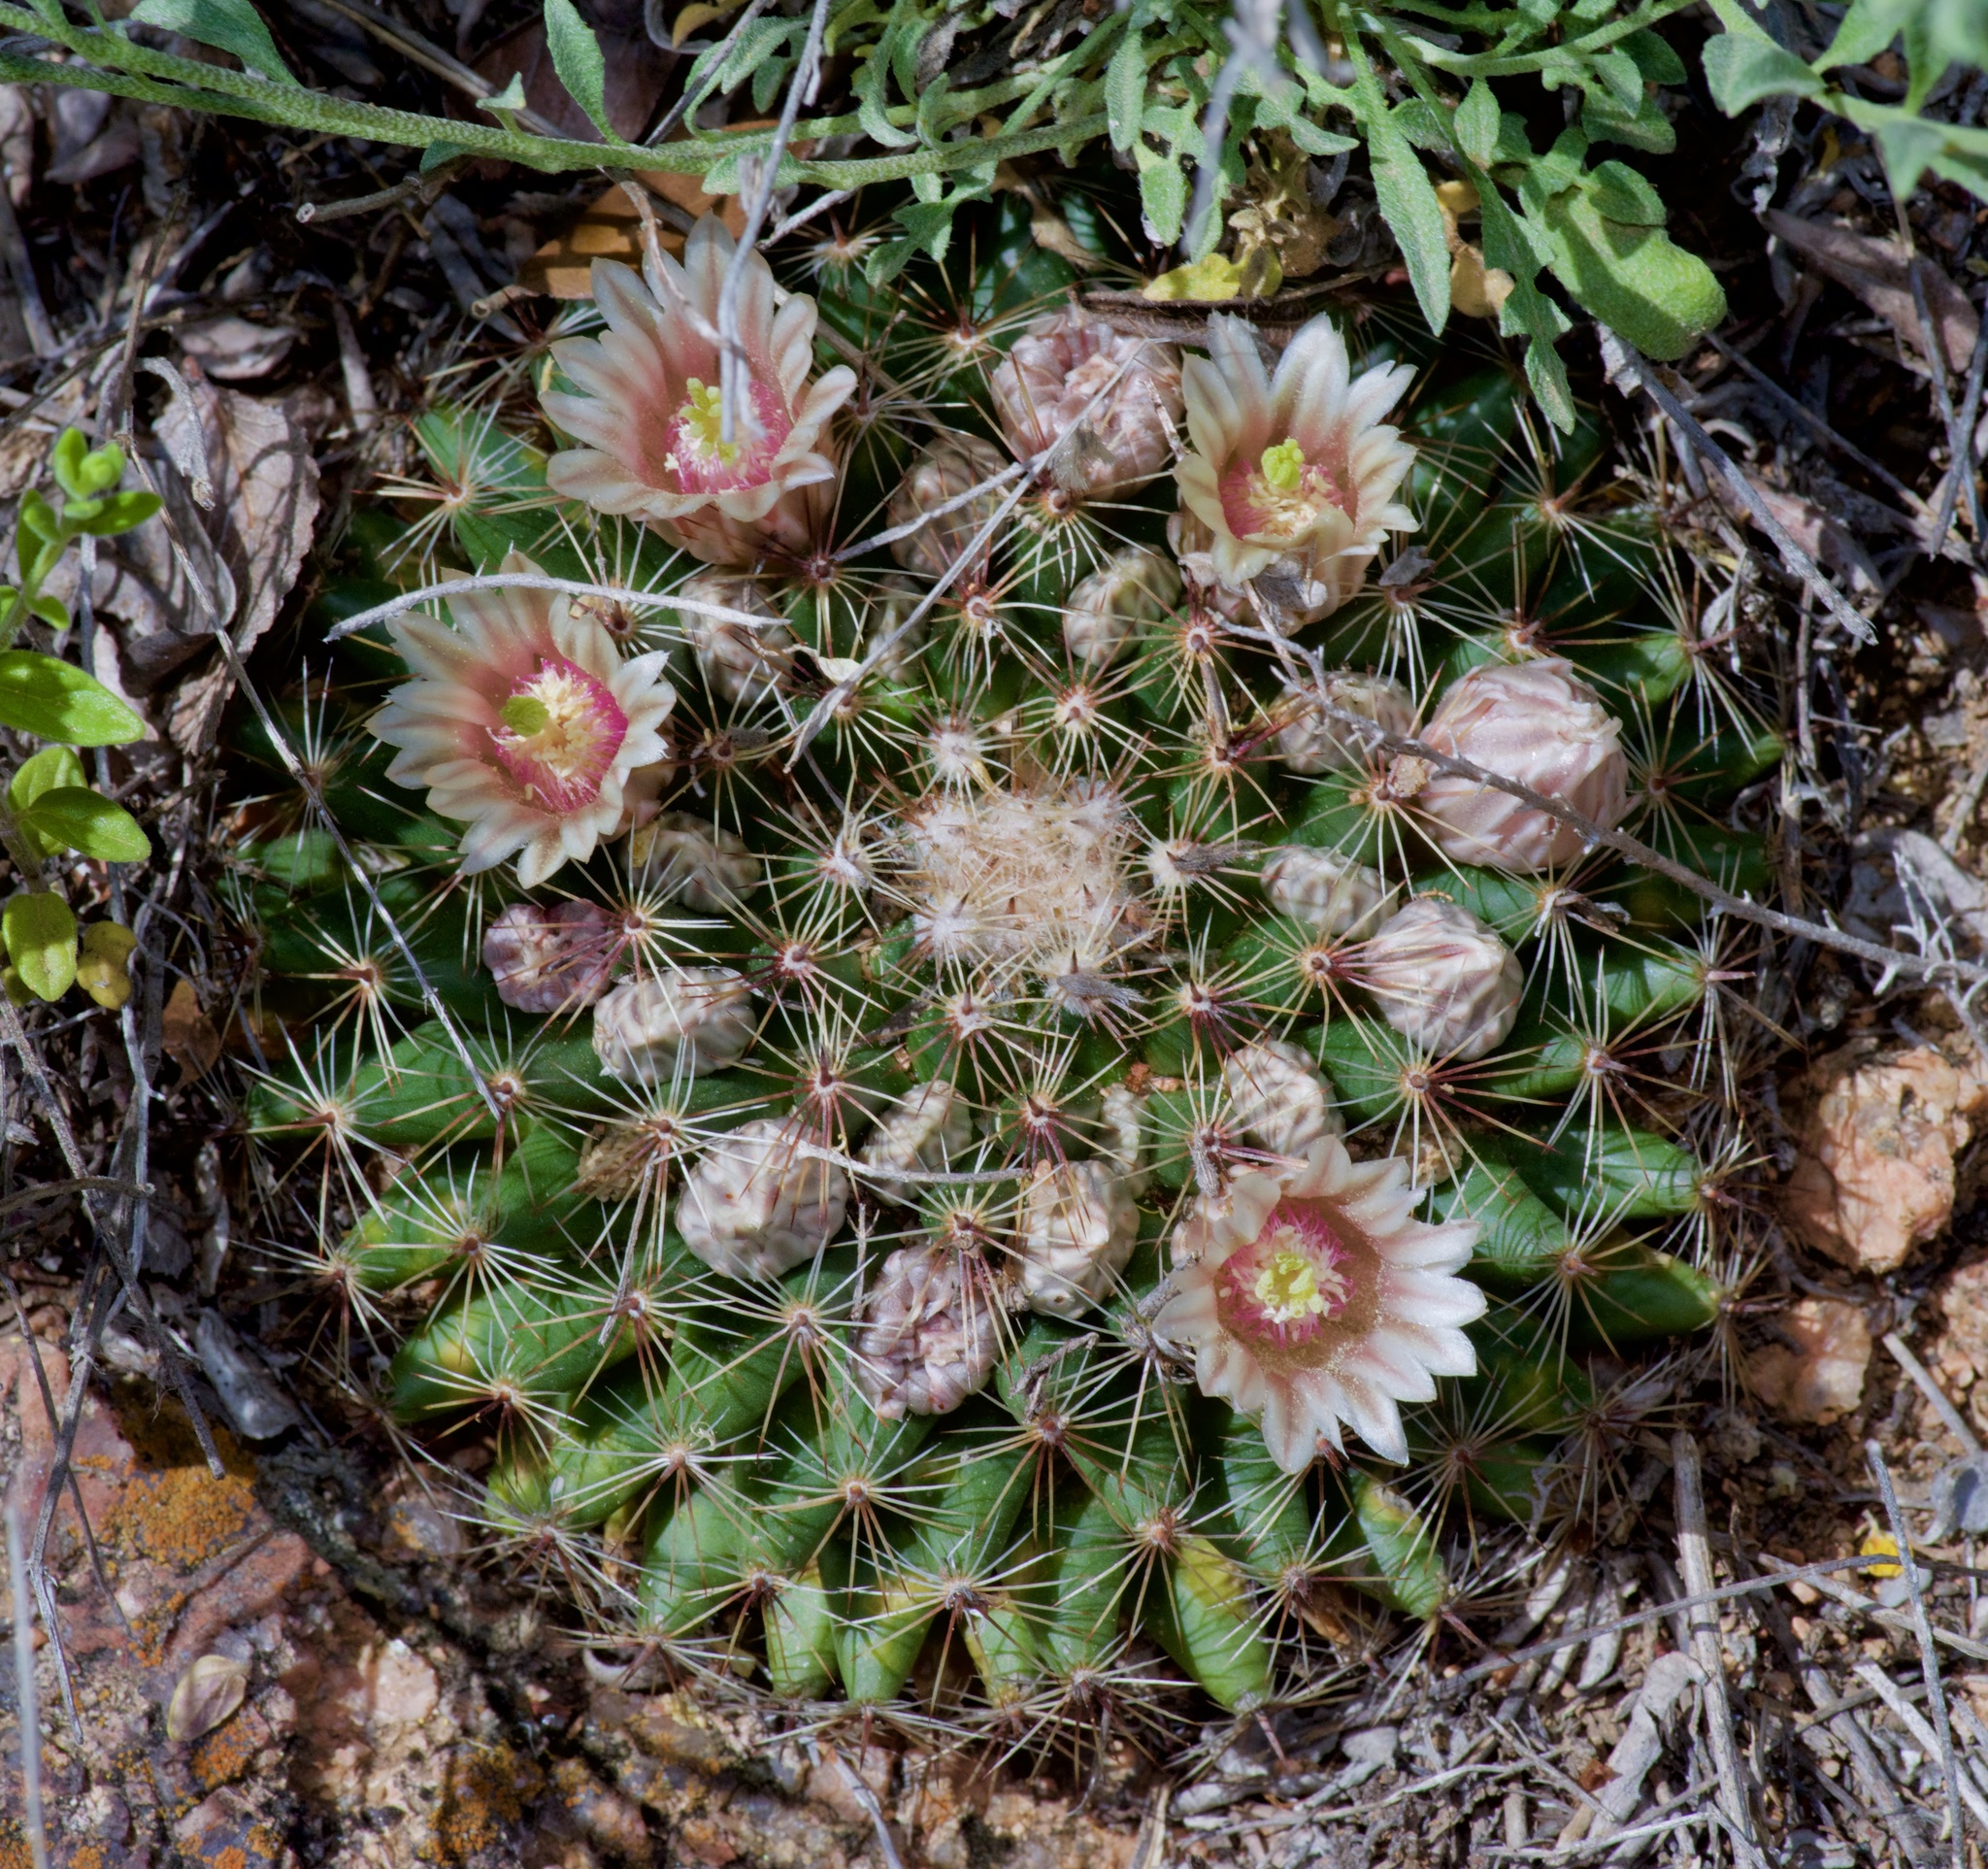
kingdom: Plantae
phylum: Tracheophyta
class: Magnoliopsida
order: Caryophyllales
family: Cactaceae
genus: Mammillaria
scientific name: Mammillaria heyderi
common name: Little nipple cactus
